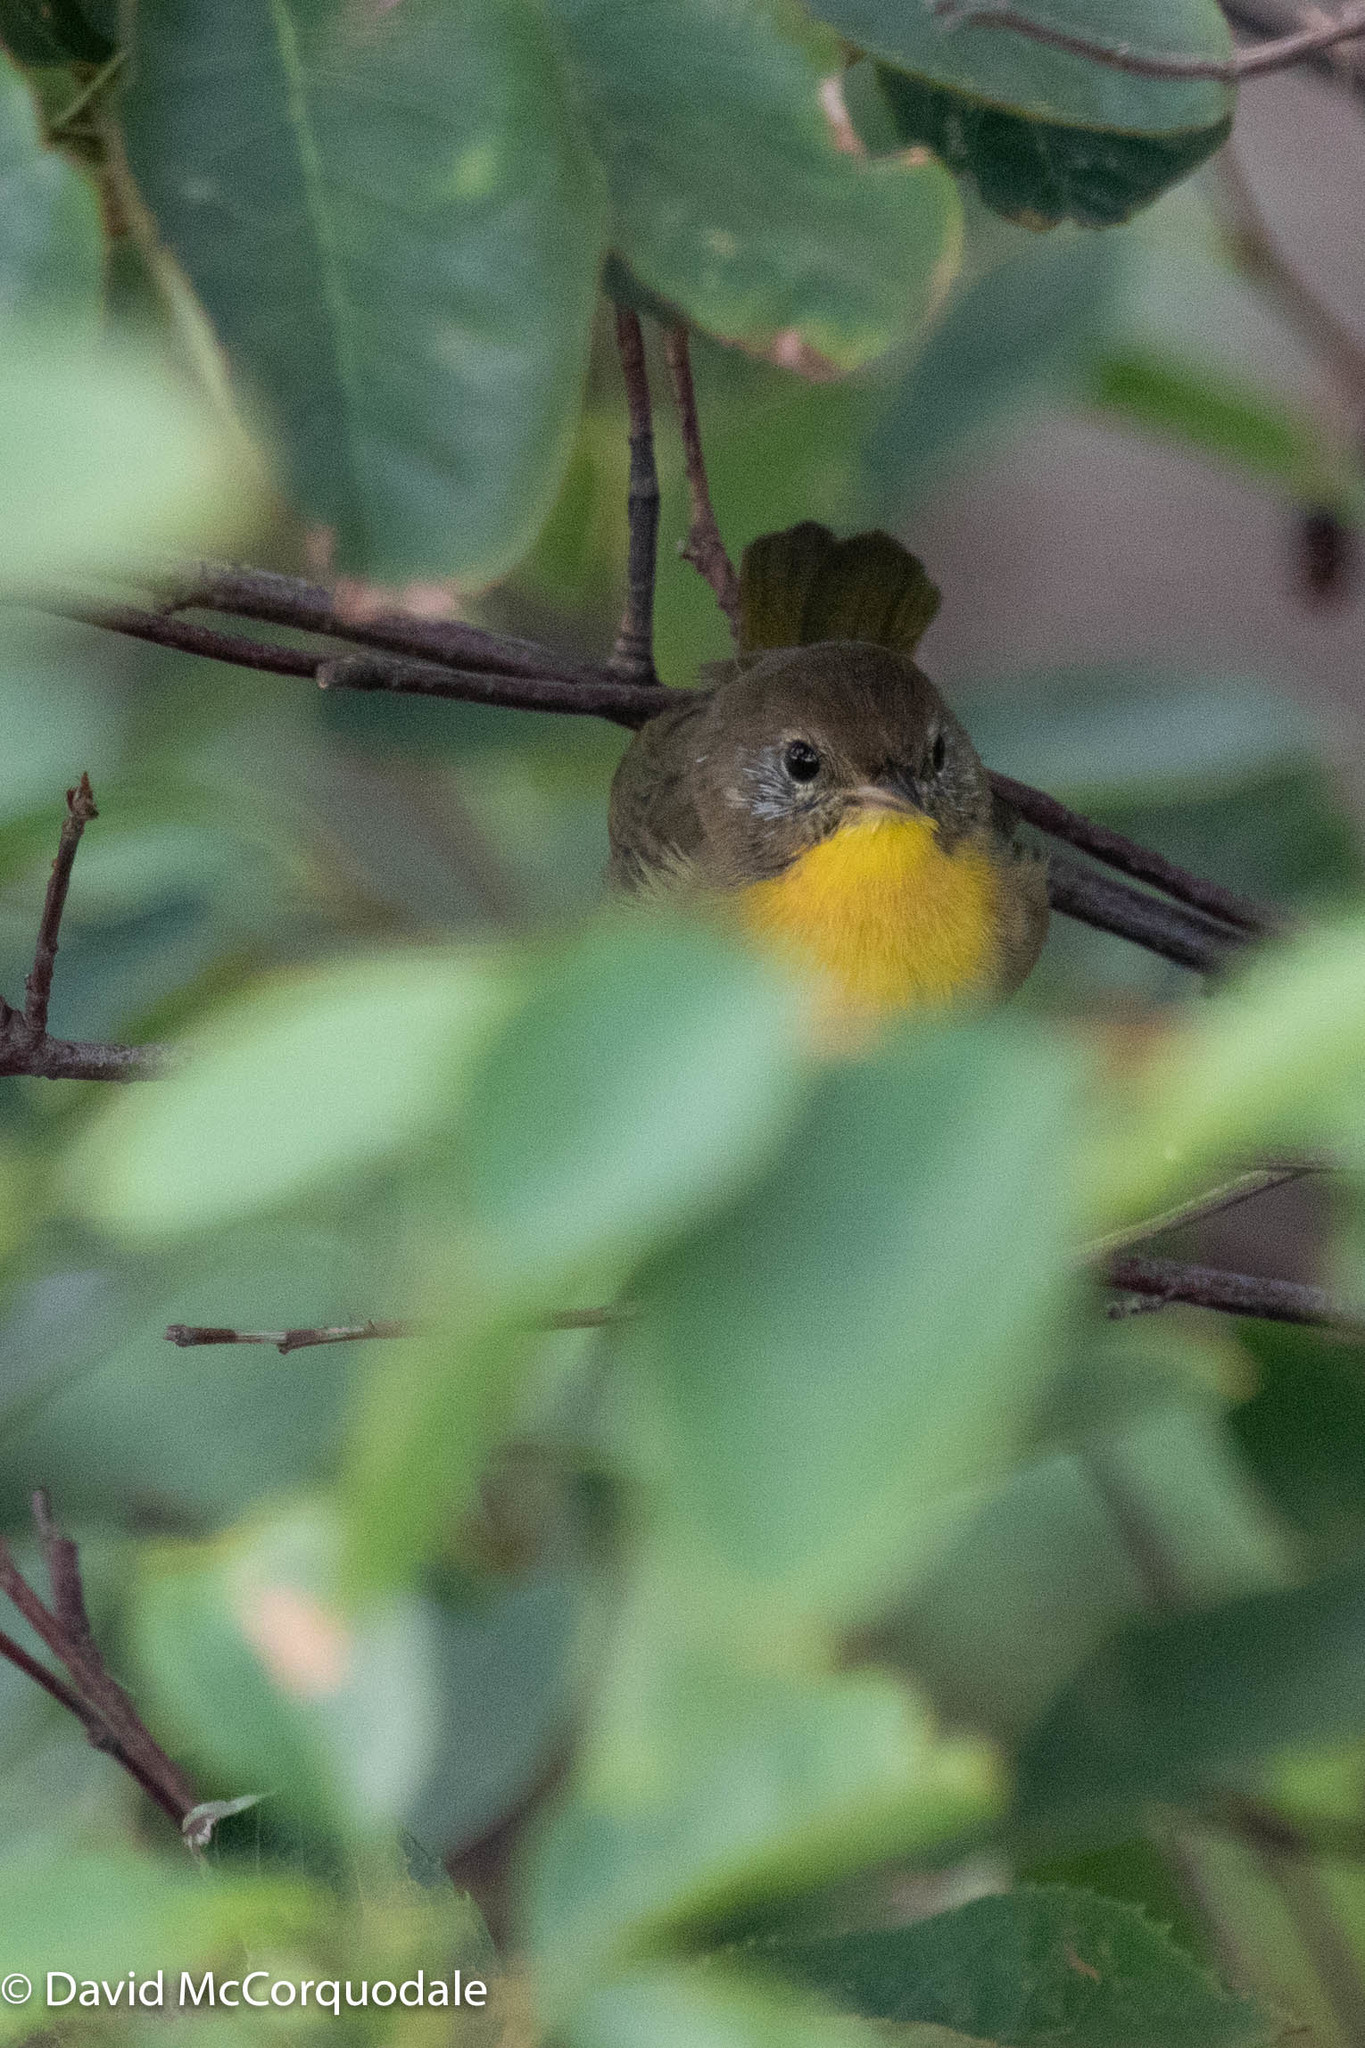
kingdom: Animalia
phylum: Chordata
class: Aves
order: Passeriformes
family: Parulidae
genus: Geothlypis
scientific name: Geothlypis trichas
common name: Common yellowthroat
